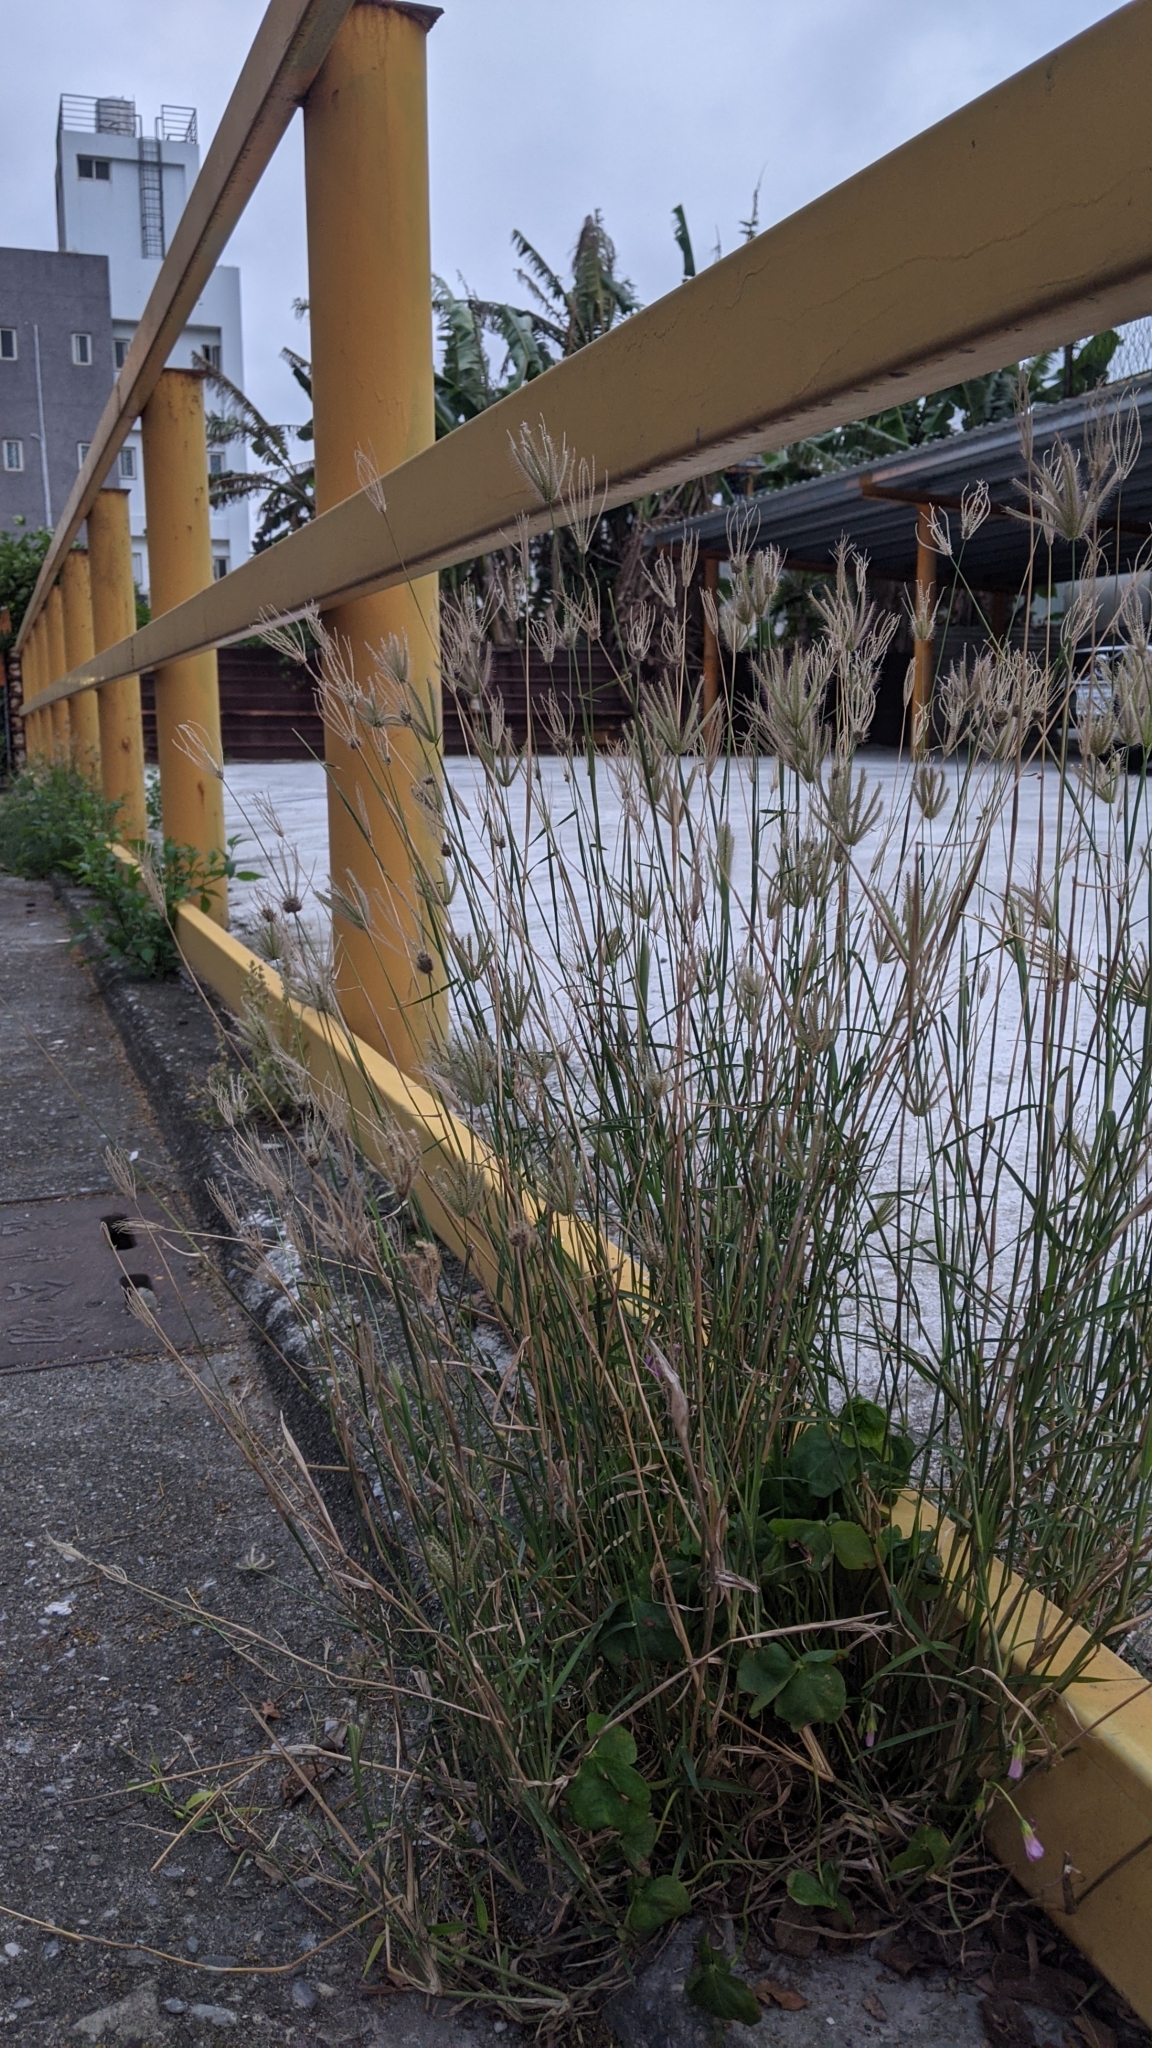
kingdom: Plantae
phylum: Tracheophyta
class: Liliopsida
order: Poales
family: Poaceae
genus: Chloris
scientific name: Chloris barbata
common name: Swollen fingergrass
